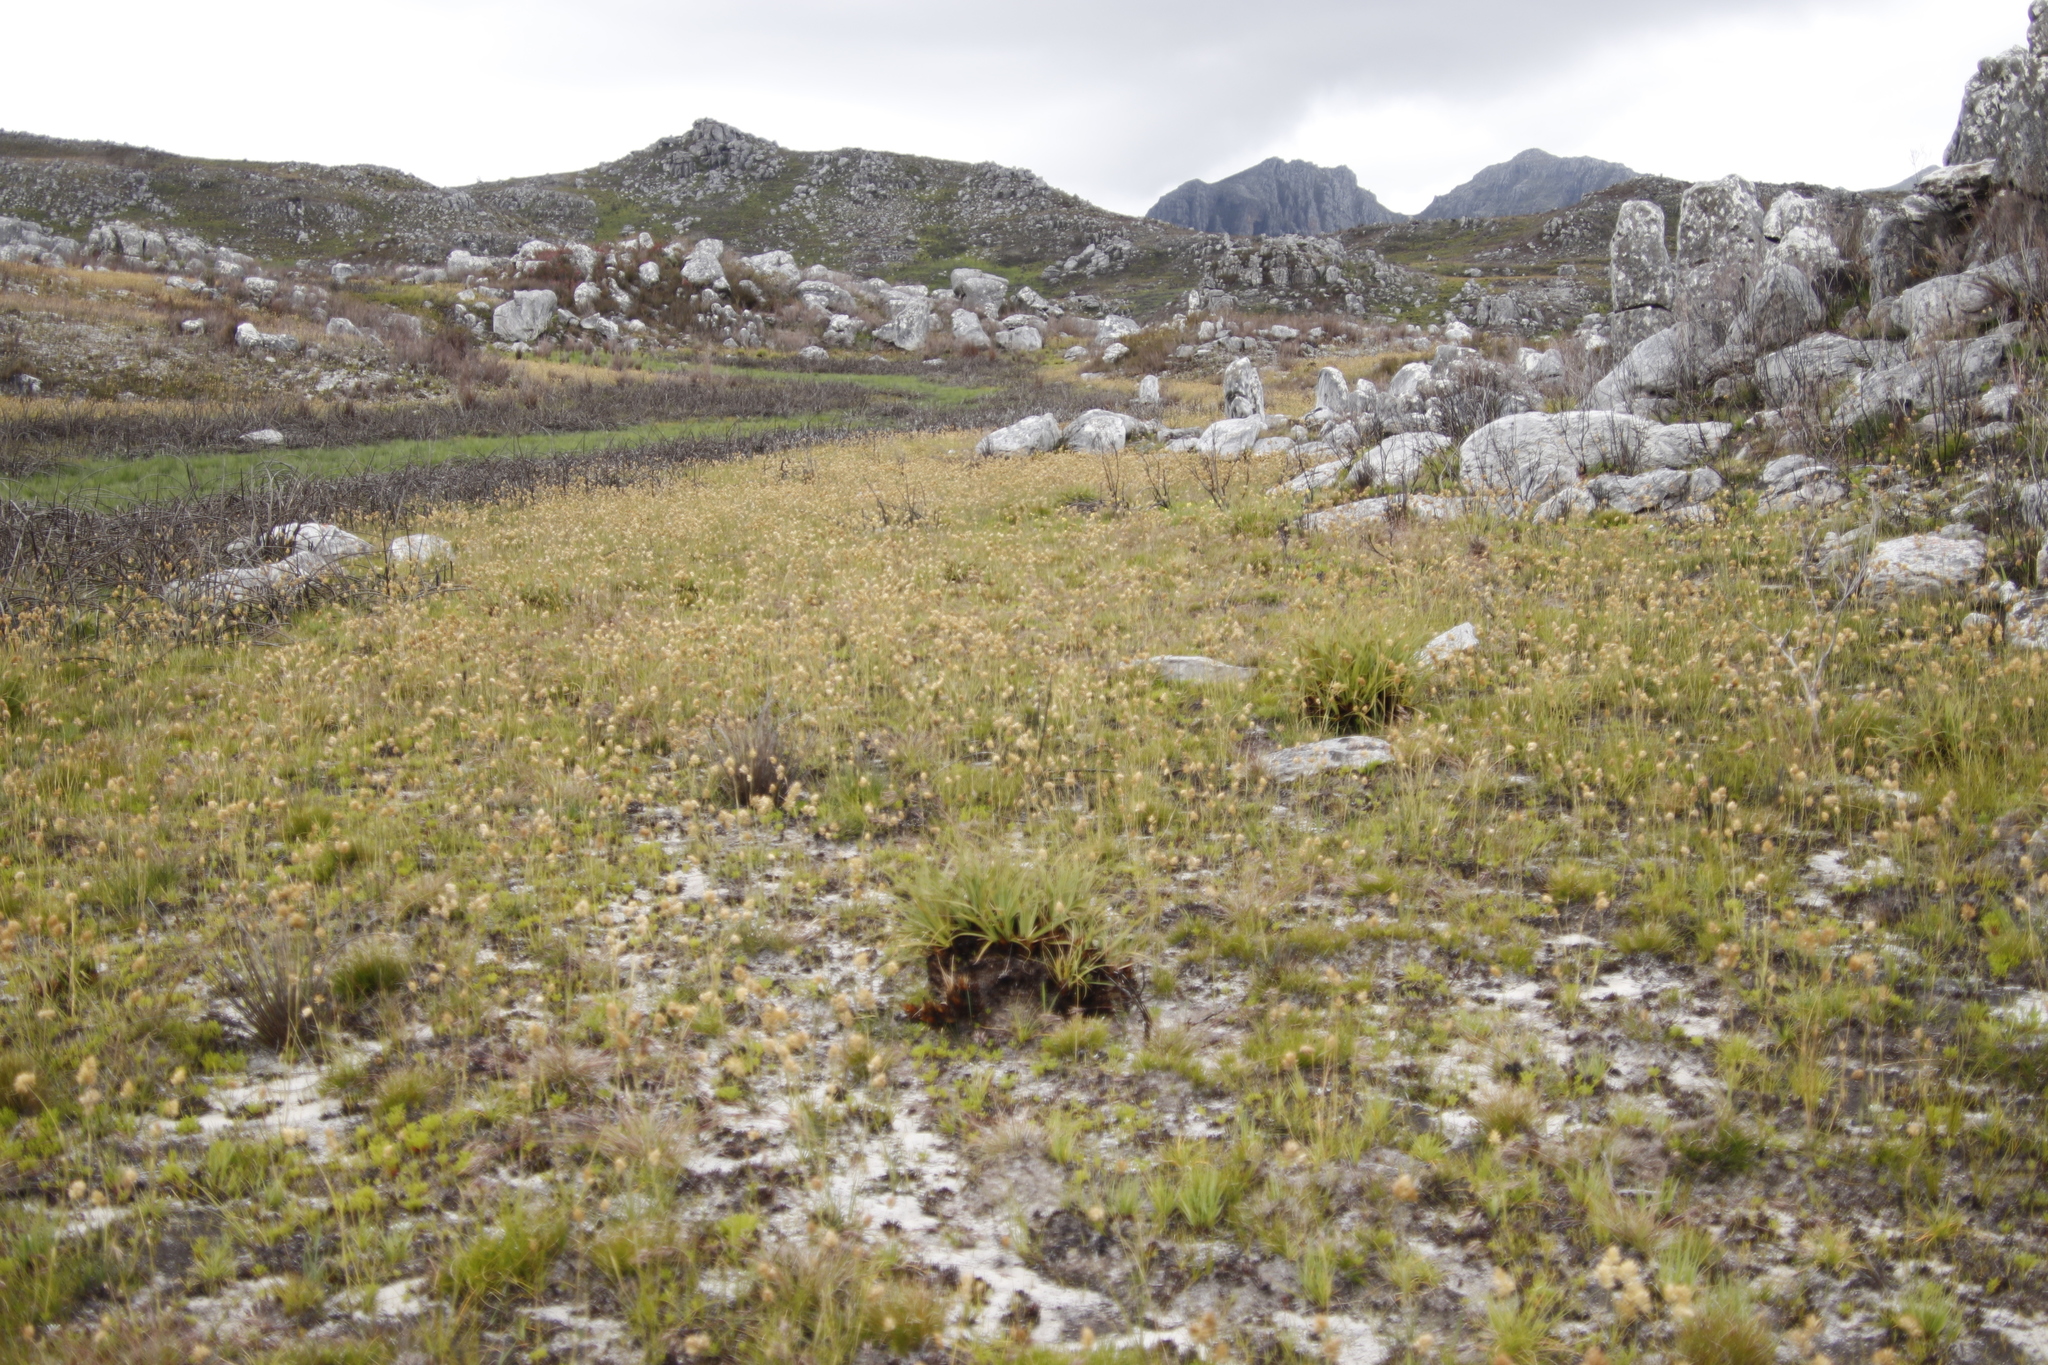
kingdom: Plantae
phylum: Tracheophyta
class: Liliopsida
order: Poales
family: Poaceae
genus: Geochloa
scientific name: Geochloa rufa
